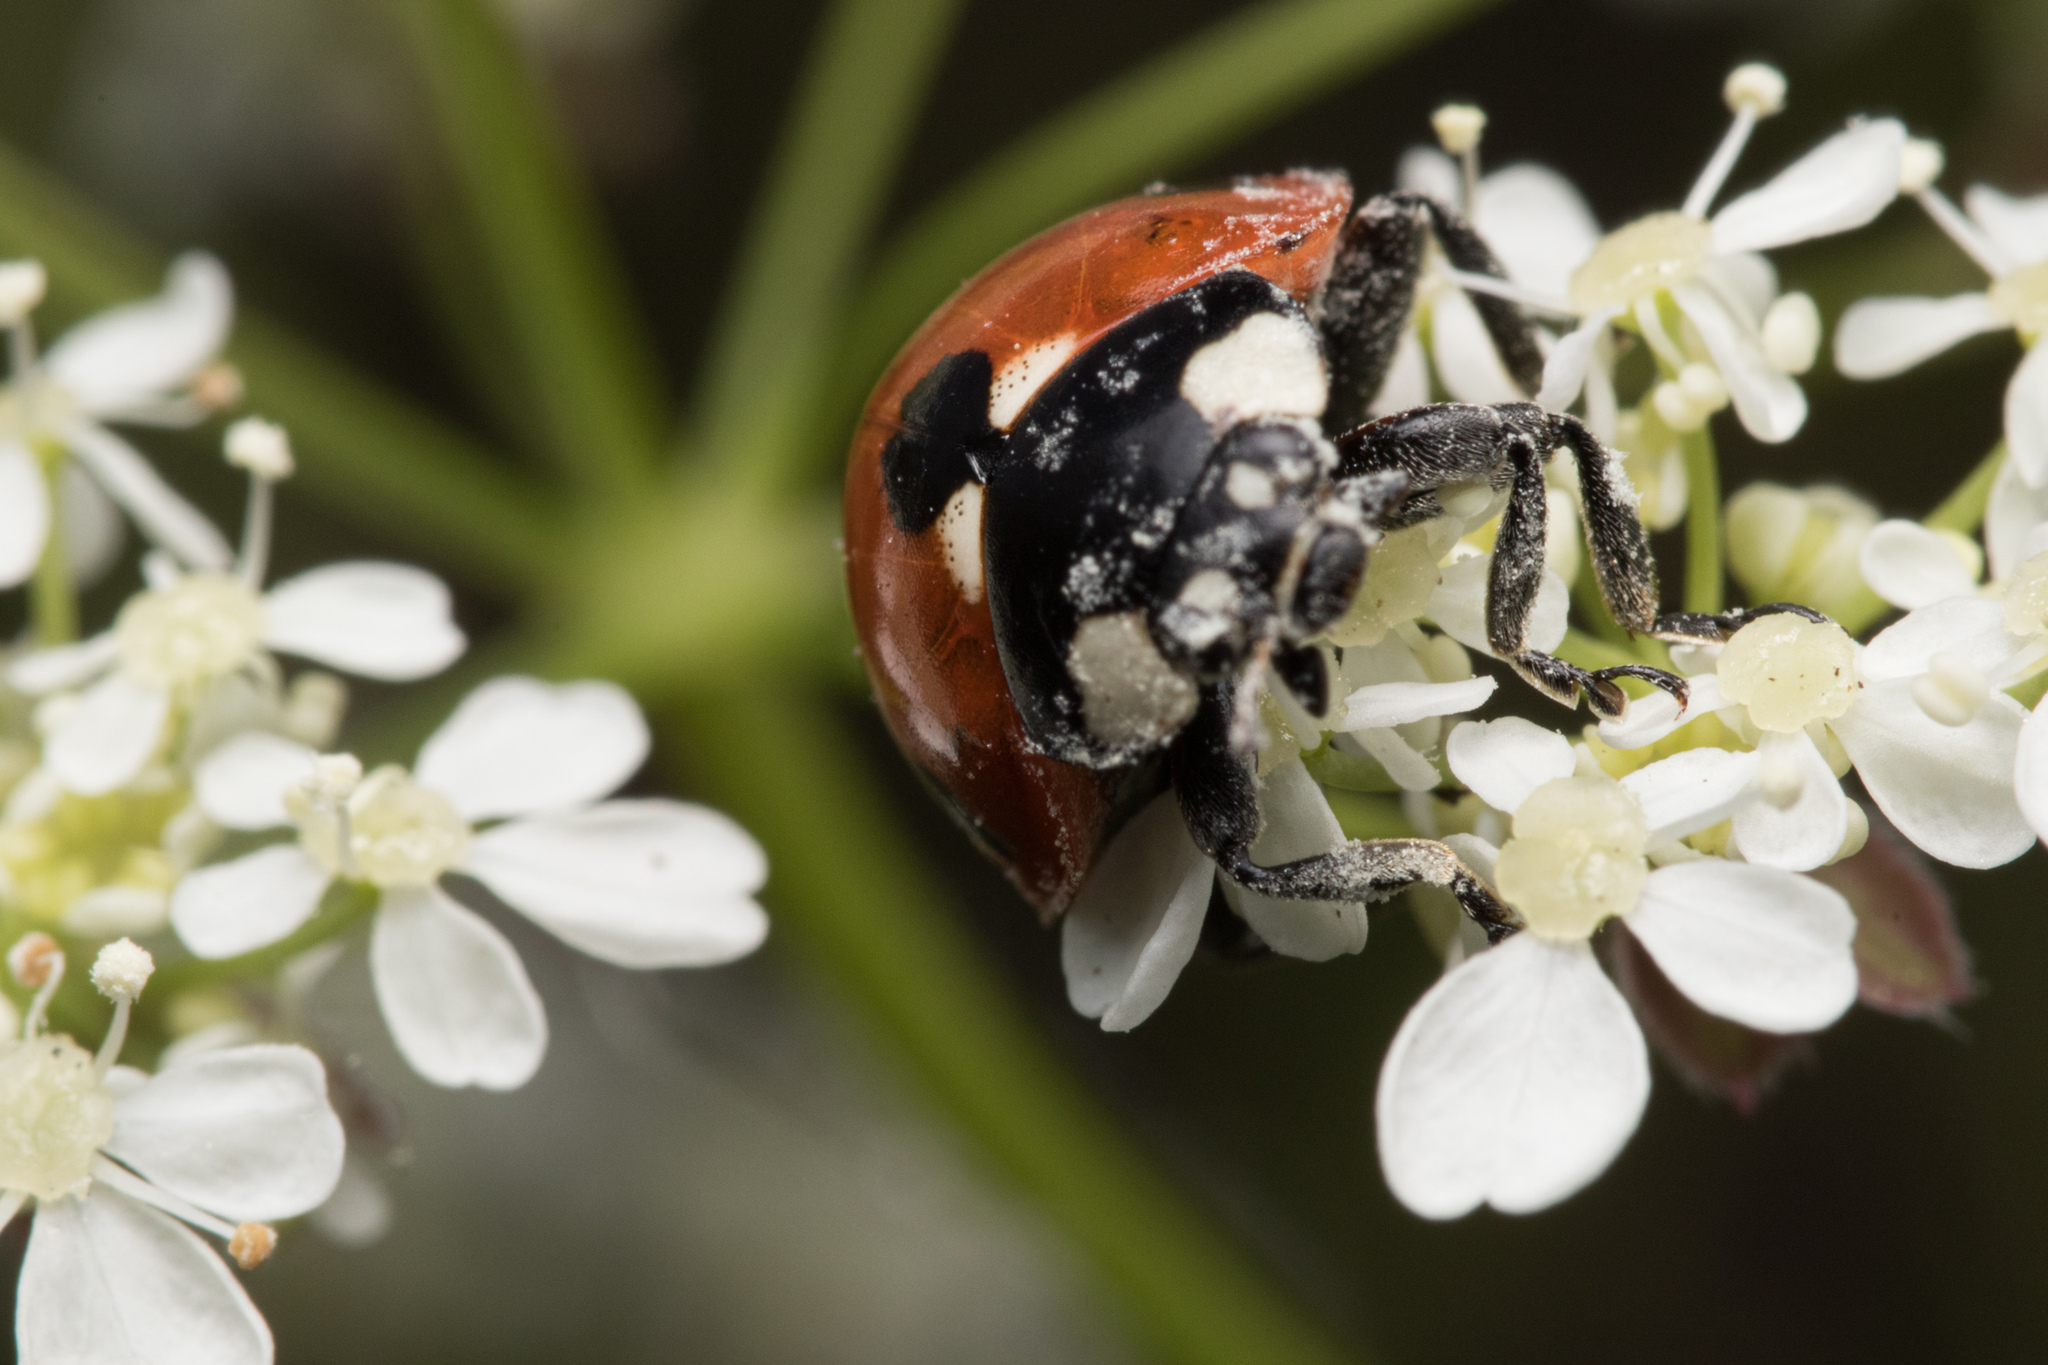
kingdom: Animalia
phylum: Arthropoda
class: Insecta
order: Coleoptera
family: Coccinellidae
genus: Coccinella
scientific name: Coccinella septempunctata
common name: Sevenspotted lady beetle
